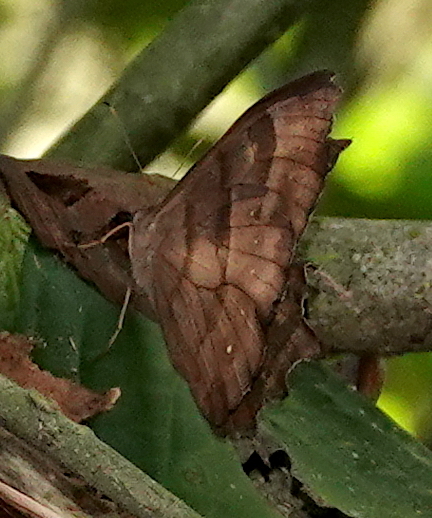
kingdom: Animalia
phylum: Arthropoda
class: Insecta
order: Lepidoptera
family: Nymphalidae
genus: Pseudodebis
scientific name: Pseudodebis puritana
